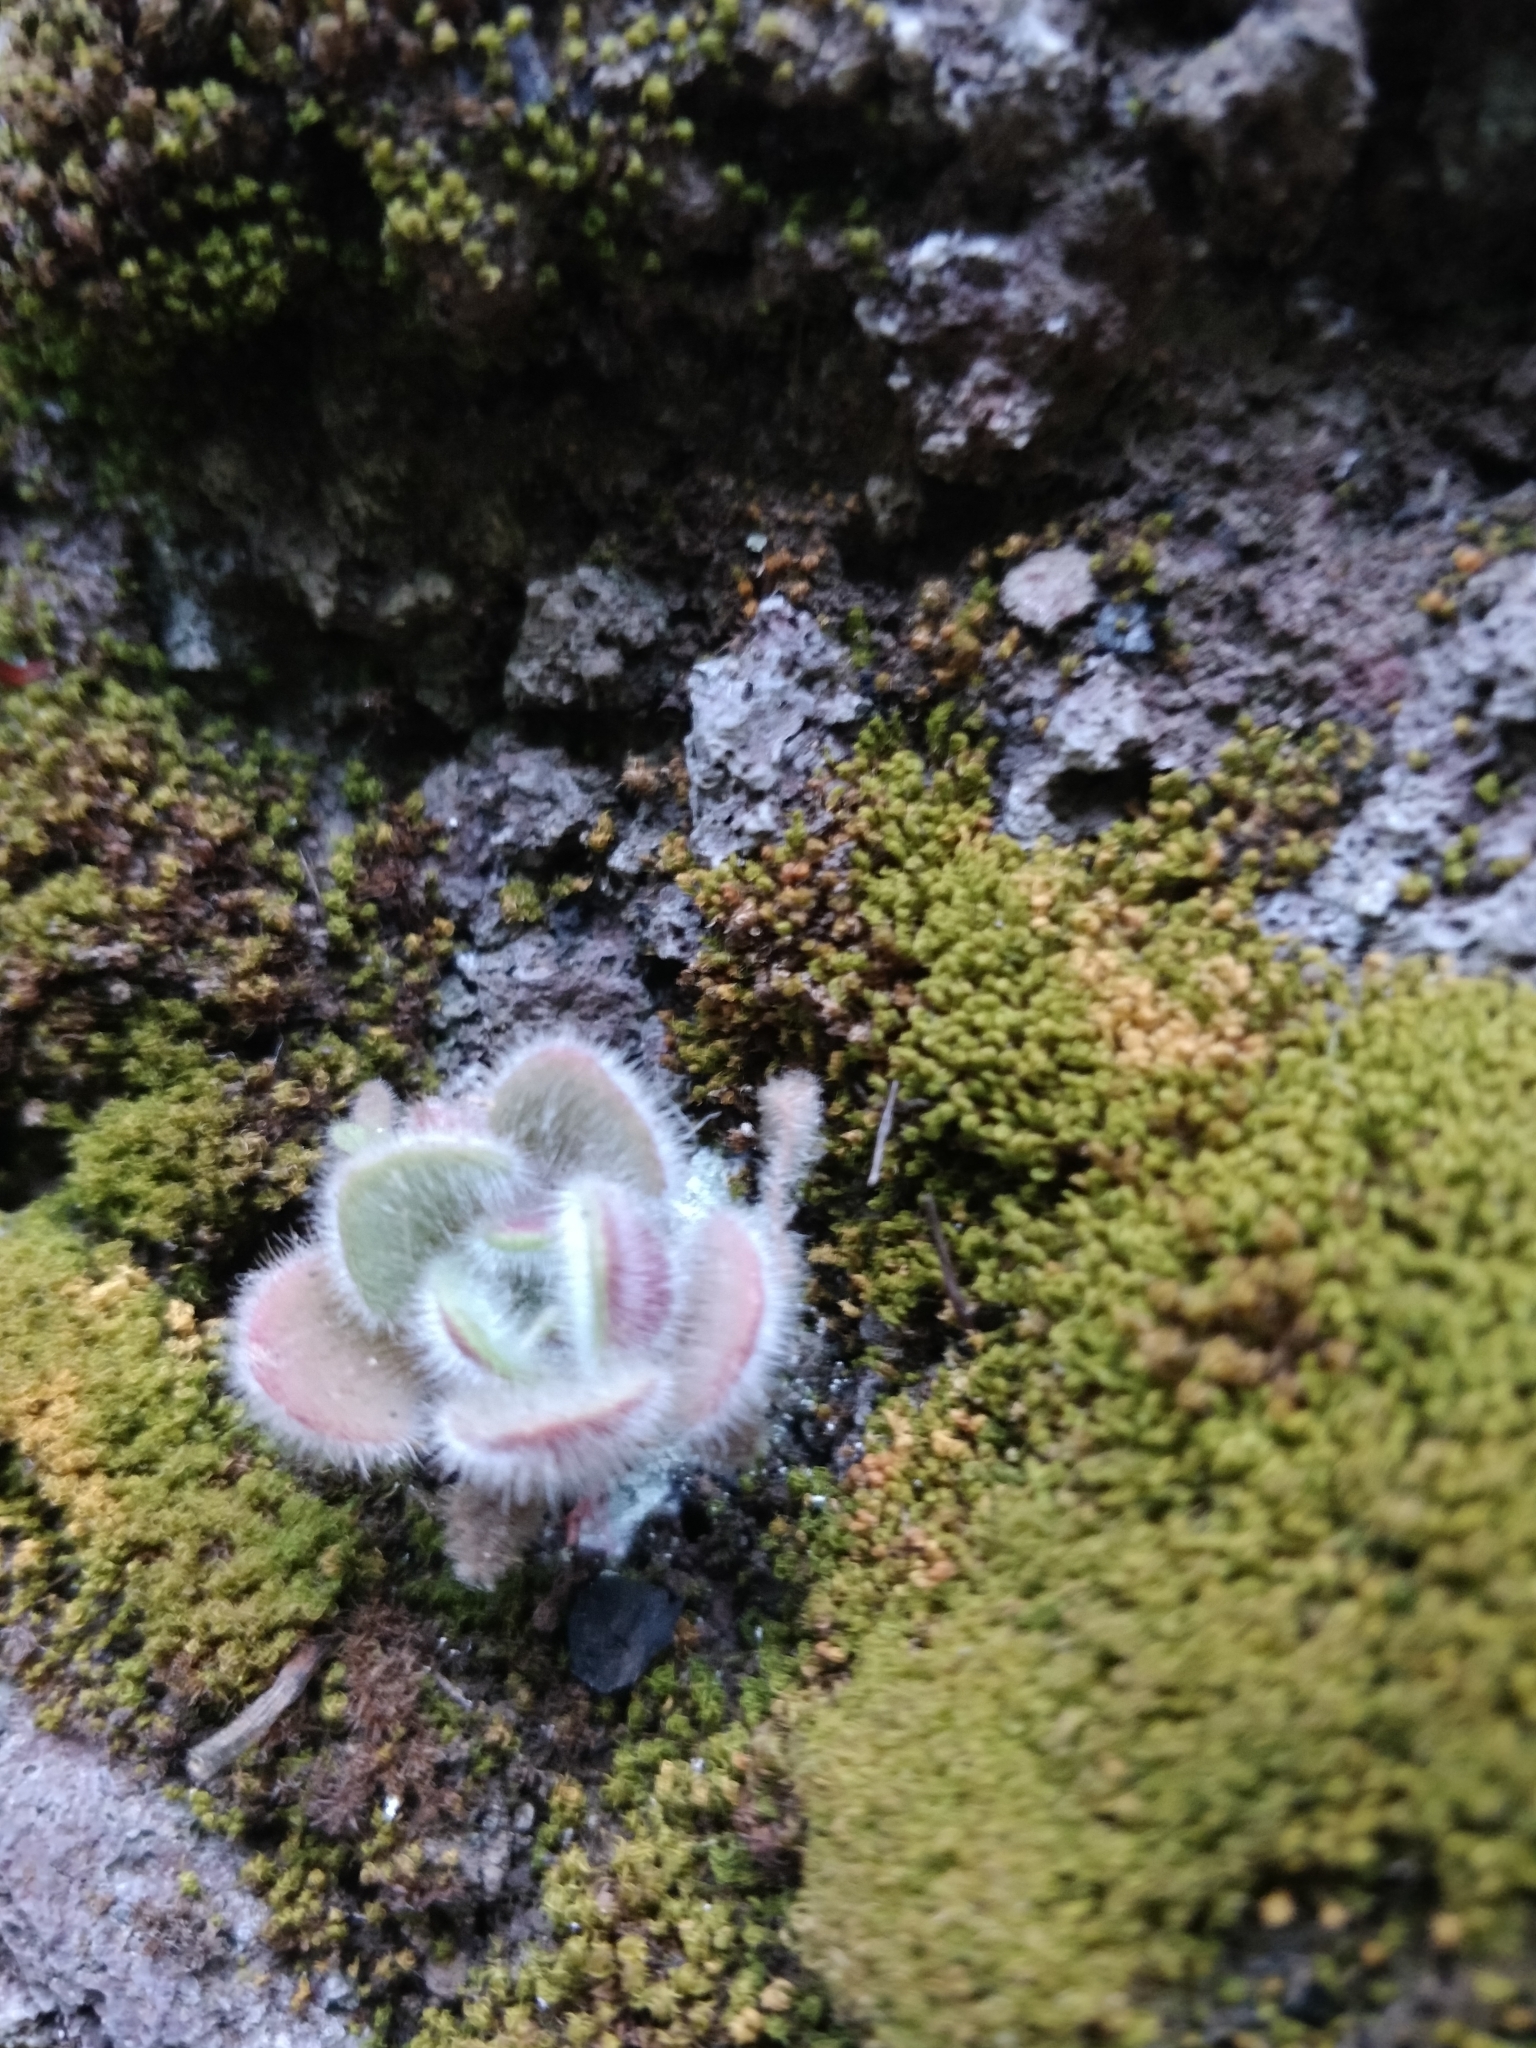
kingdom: Plantae
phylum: Tracheophyta
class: Magnoliopsida
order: Saxifragales
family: Crassulaceae
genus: Aichryson
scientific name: Aichryson villosum
